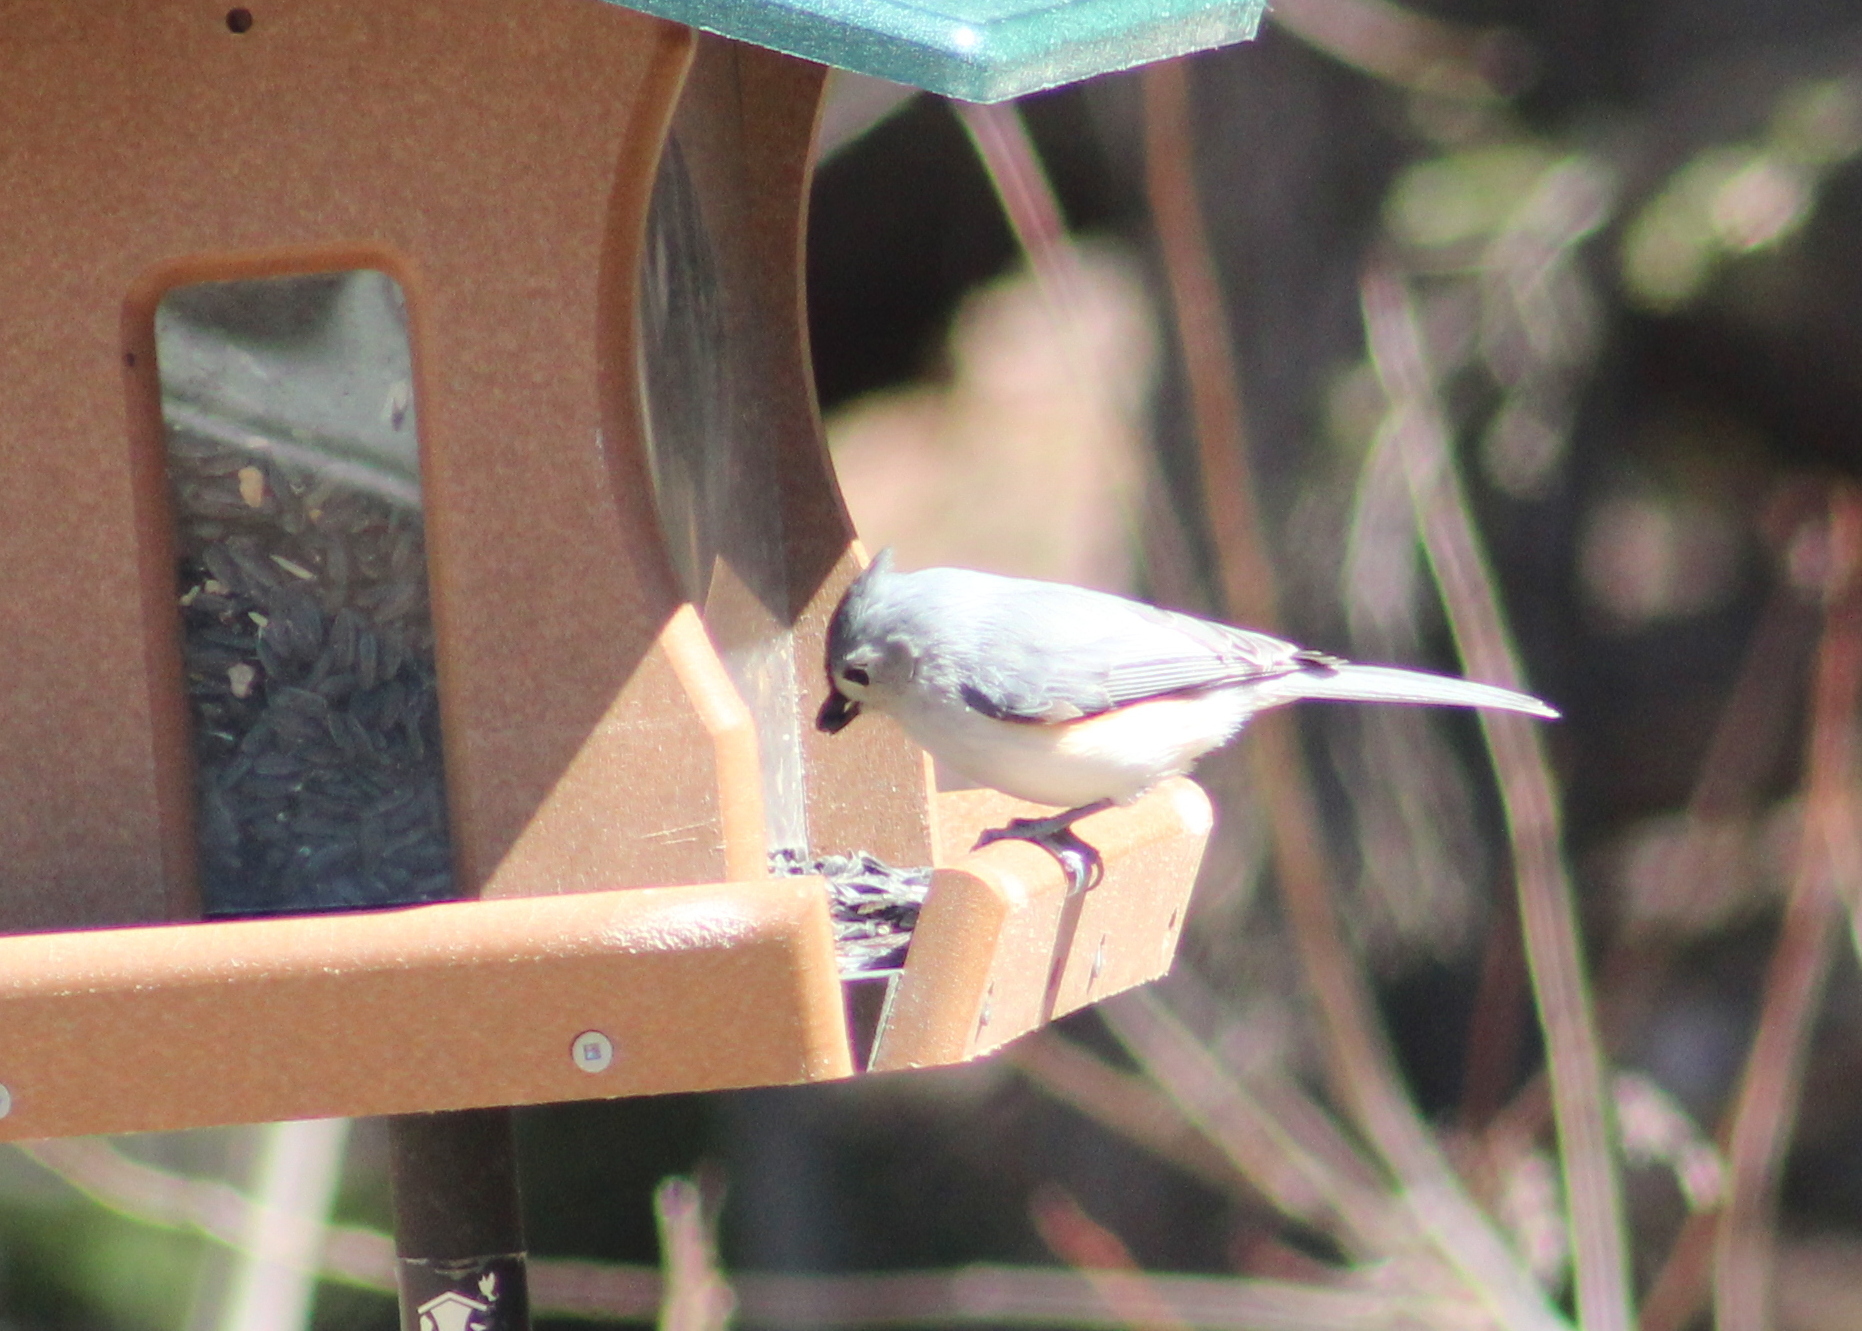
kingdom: Animalia
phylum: Chordata
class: Aves
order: Passeriformes
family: Paridae
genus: Baeolophus
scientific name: Baeolophus bicolor
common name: Tufted titmouse
